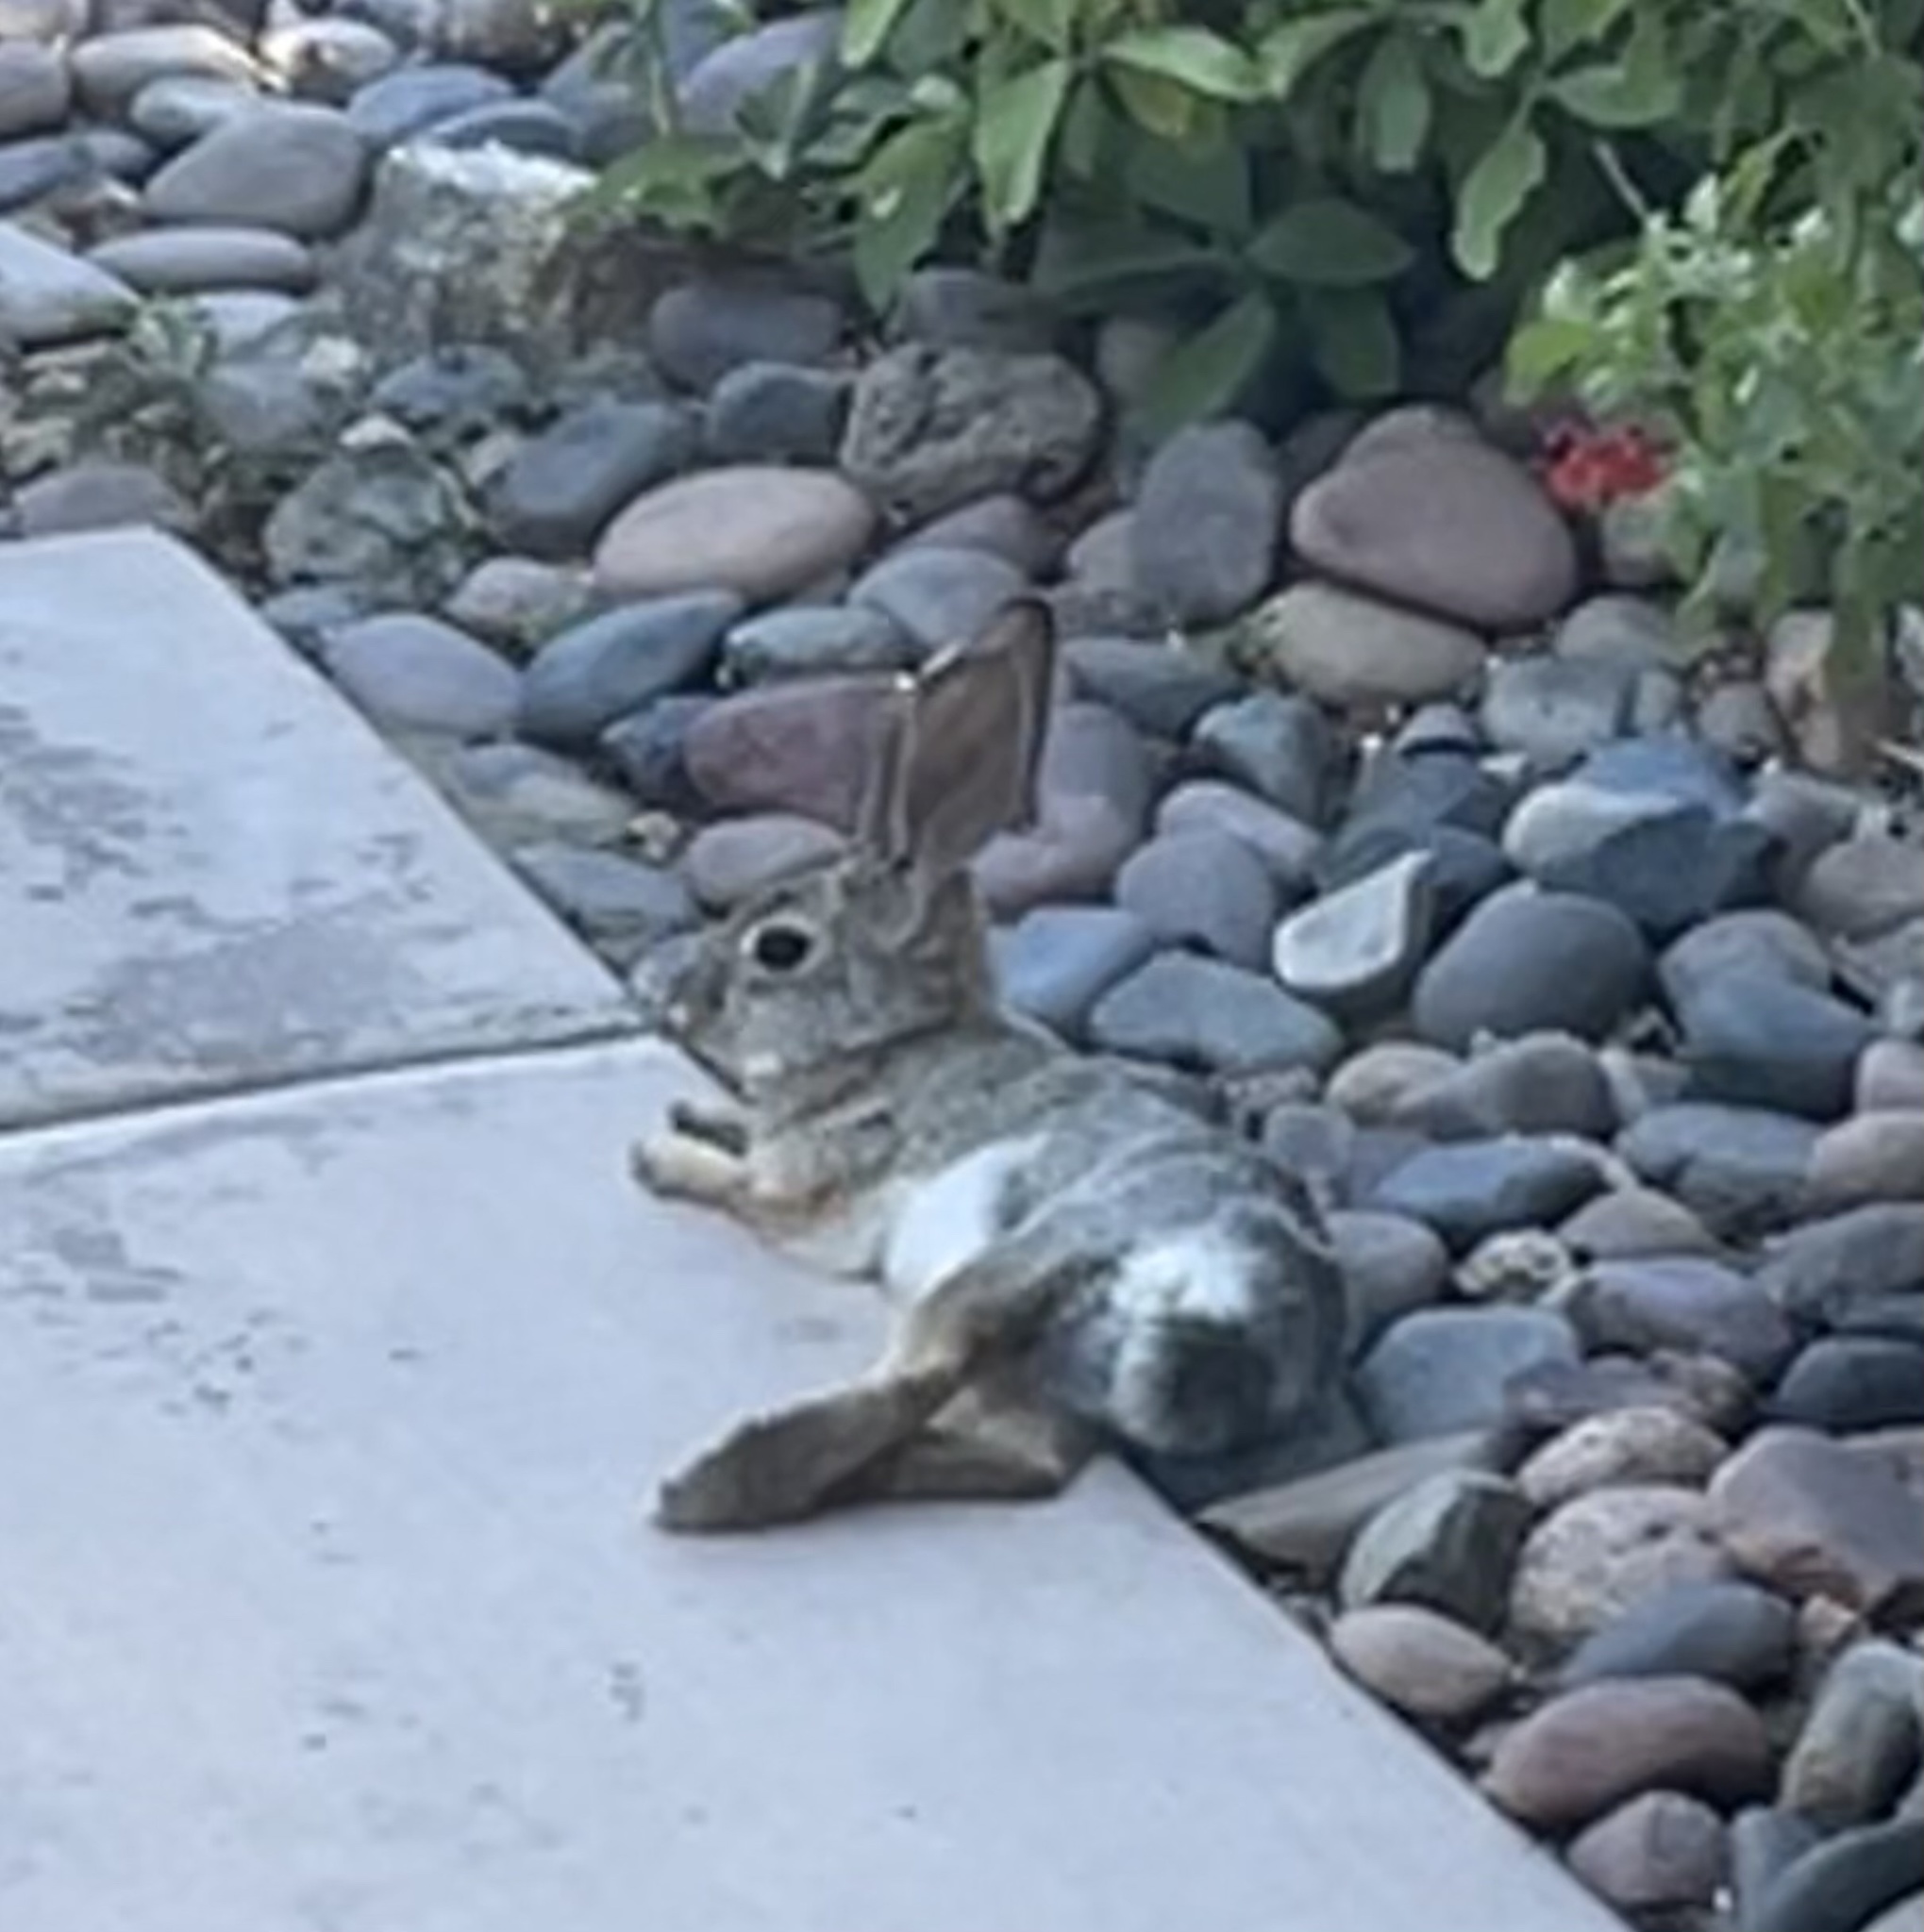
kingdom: Animalia
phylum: Chordata
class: Mammalia
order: Lagomorpha
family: Leporidae
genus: Sylvilagus
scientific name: Sylvilagus audubonii
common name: Desert cottontail
